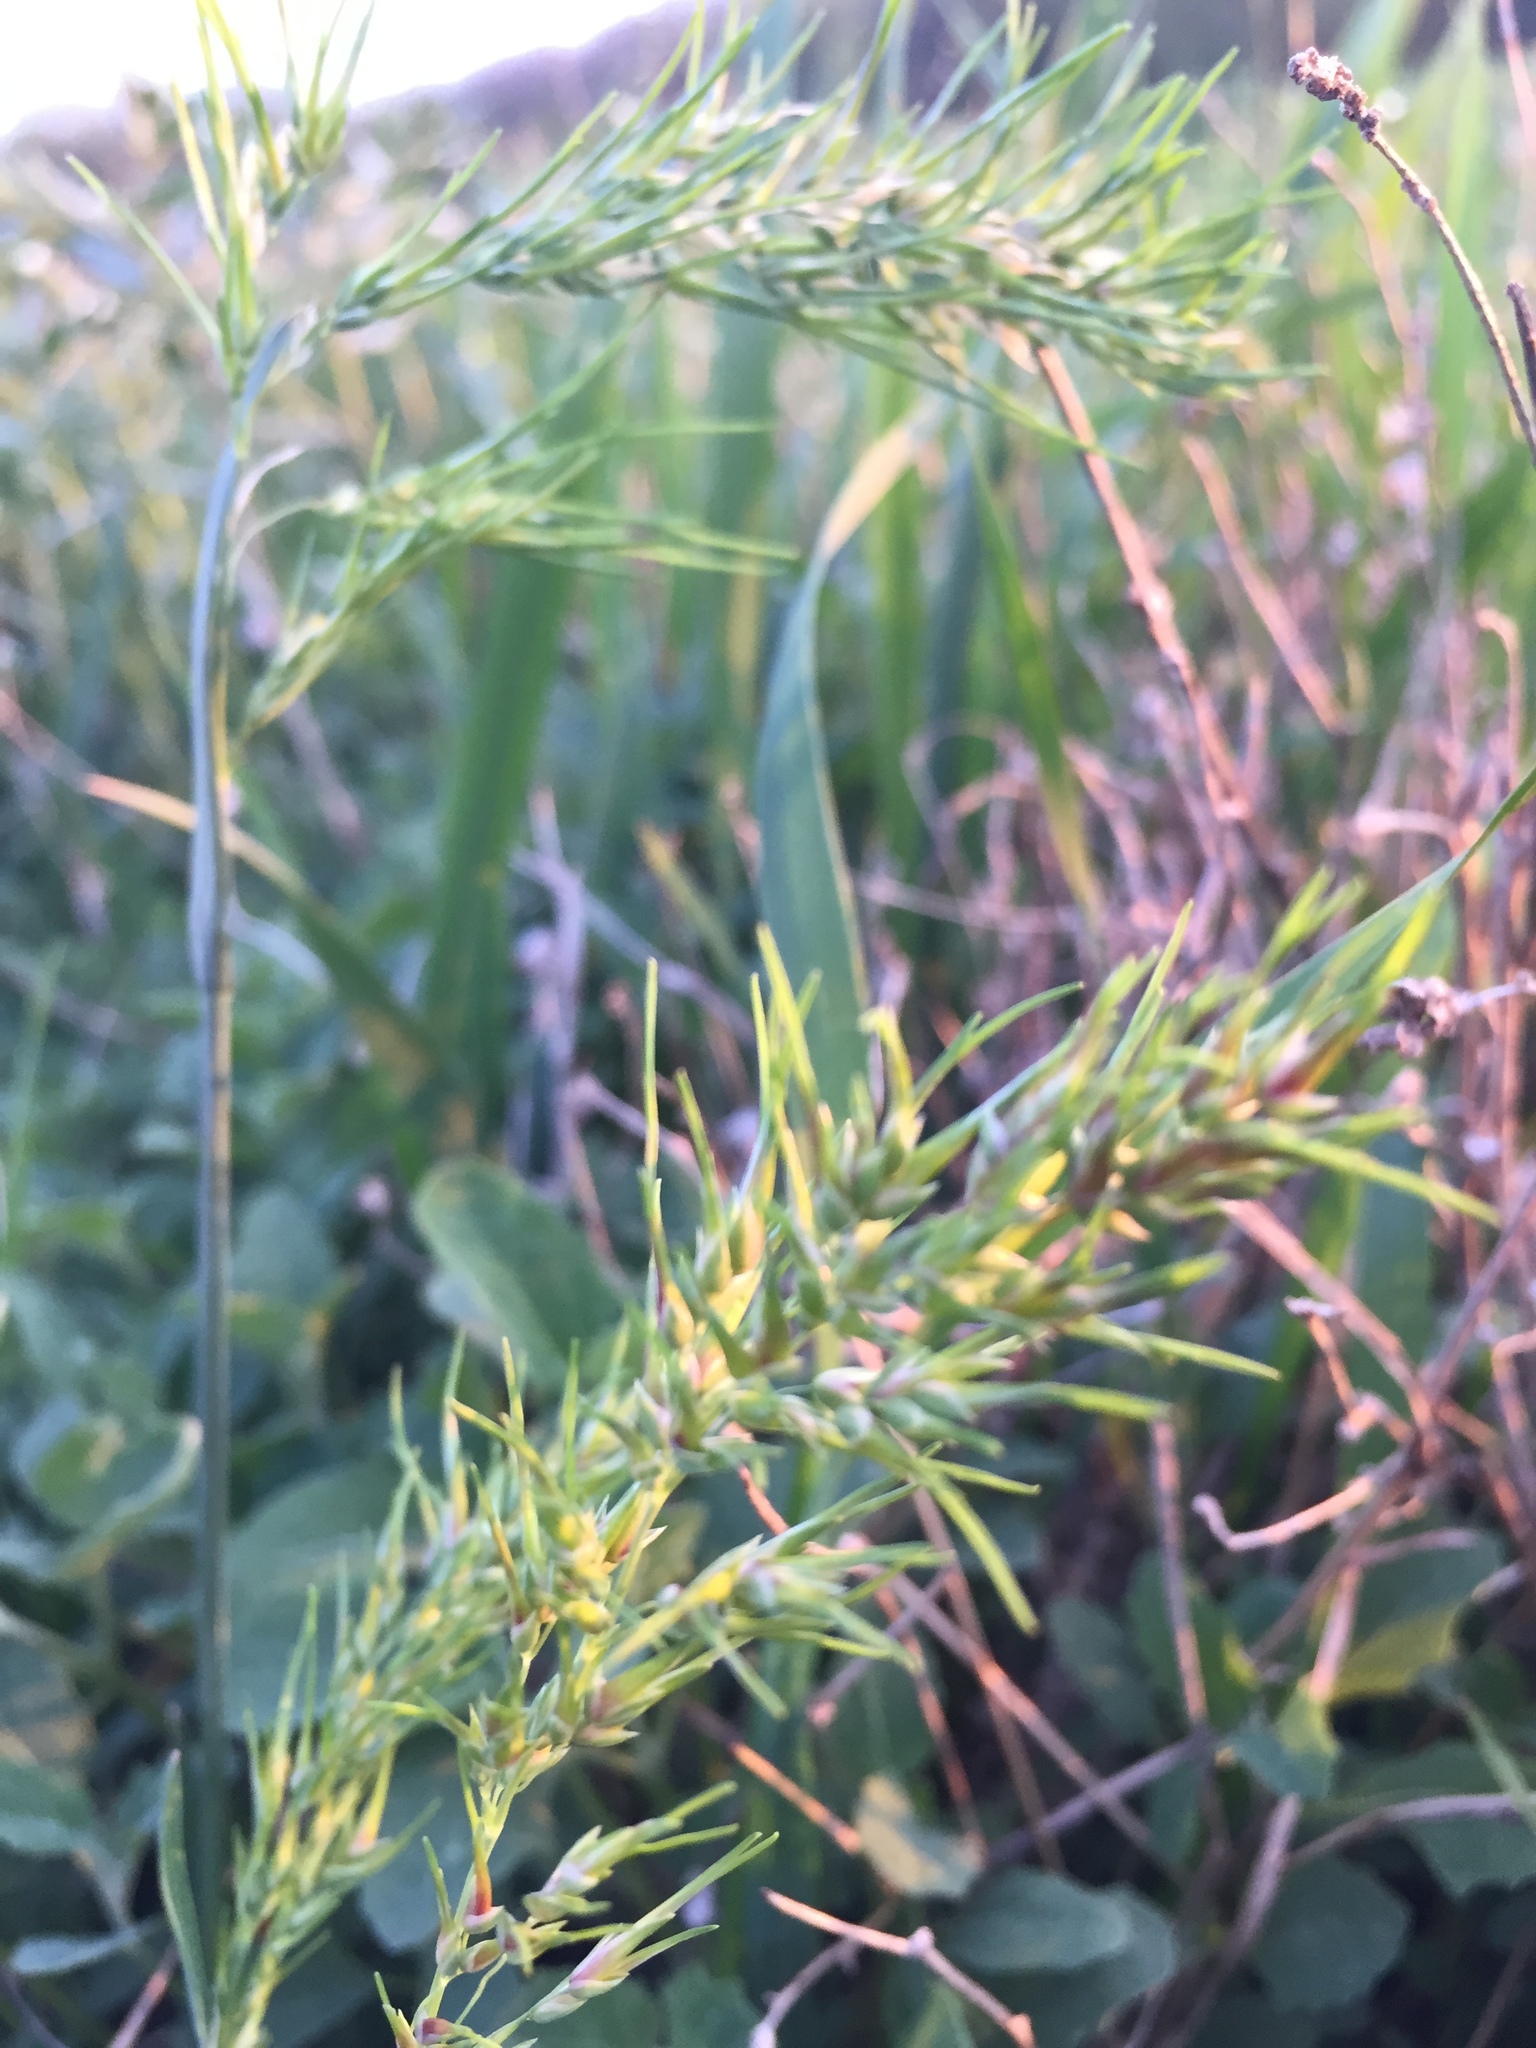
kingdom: Plantae
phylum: Tracheophyta
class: Liliopsida
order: Poales
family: Poaceae
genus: Poa
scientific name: Poa bulbosa
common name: Bulbous bluegrass
